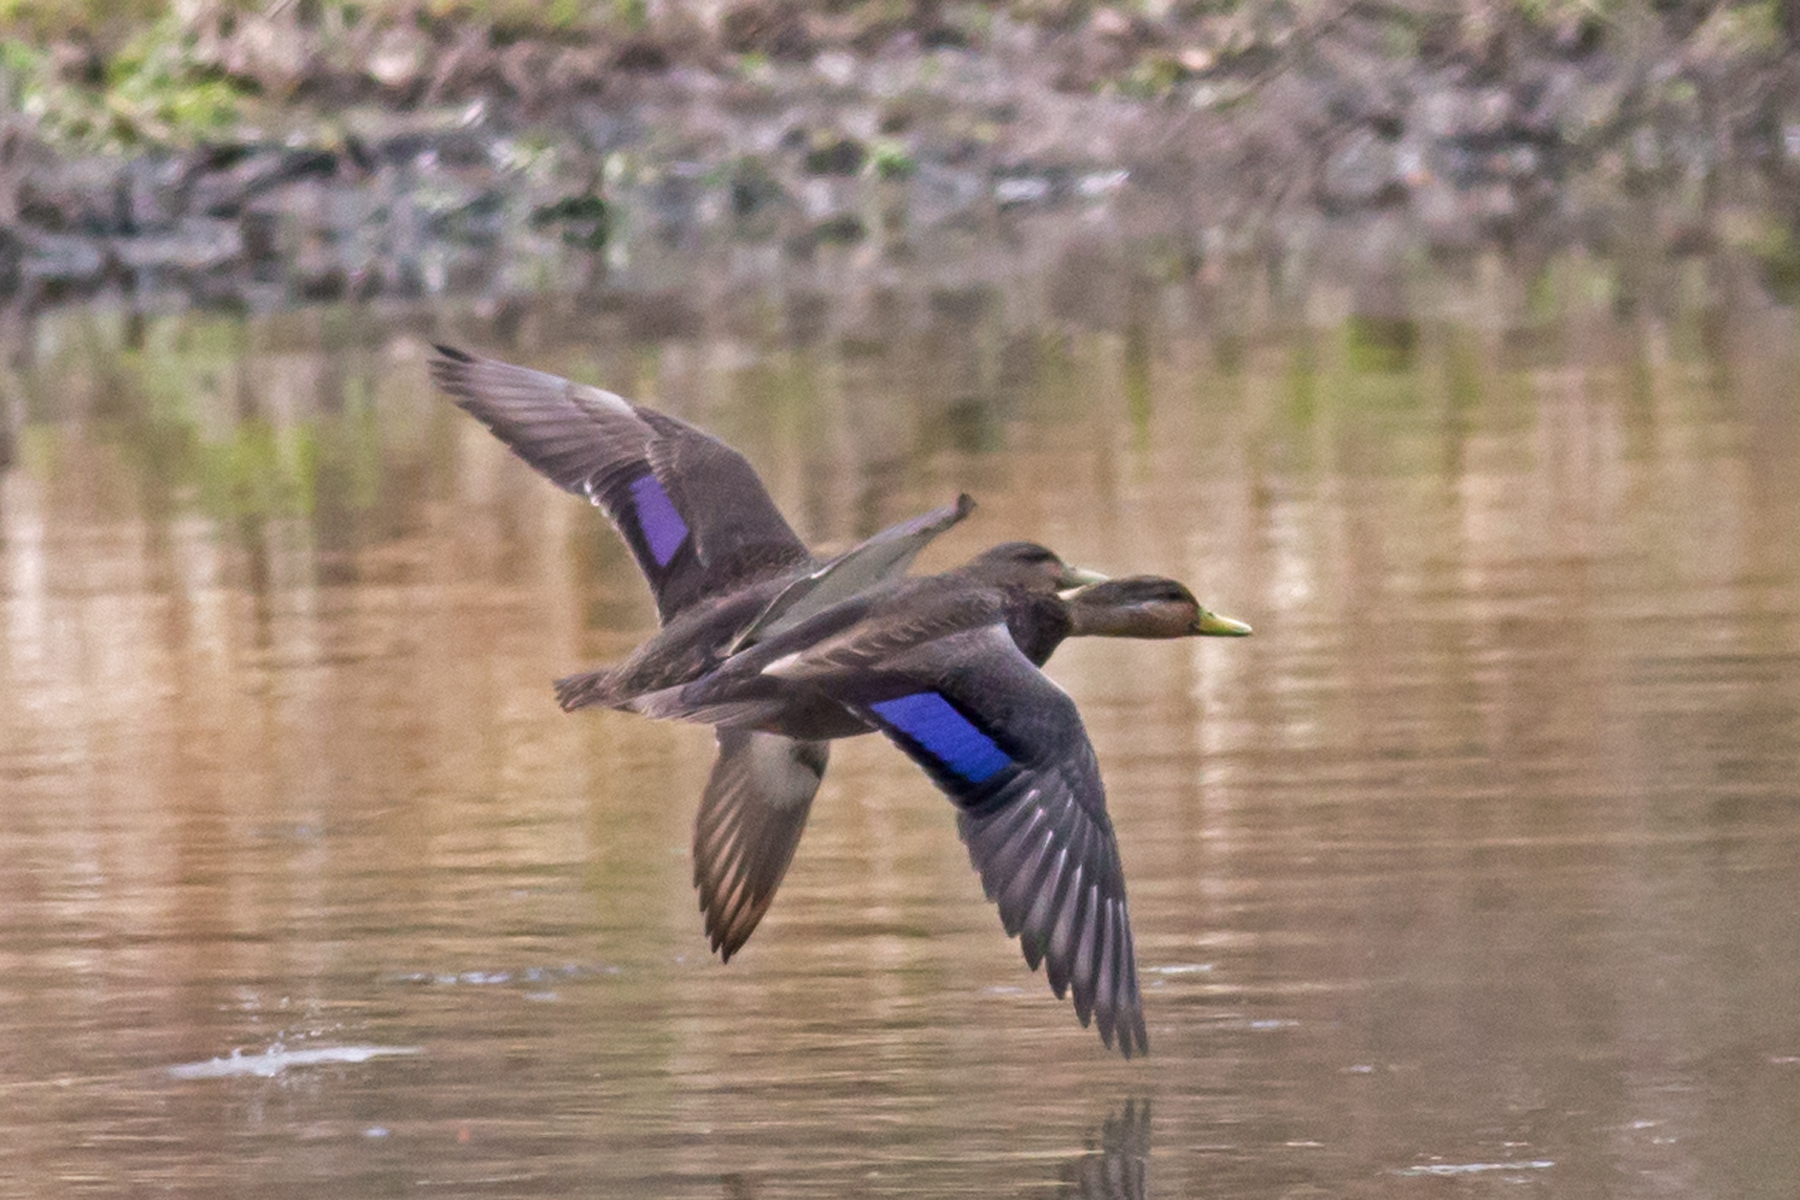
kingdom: Animalia
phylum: Chordata
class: Aves
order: Anseriformes
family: Anatidae
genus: Anas
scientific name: Anas rubripes
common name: American black duck
